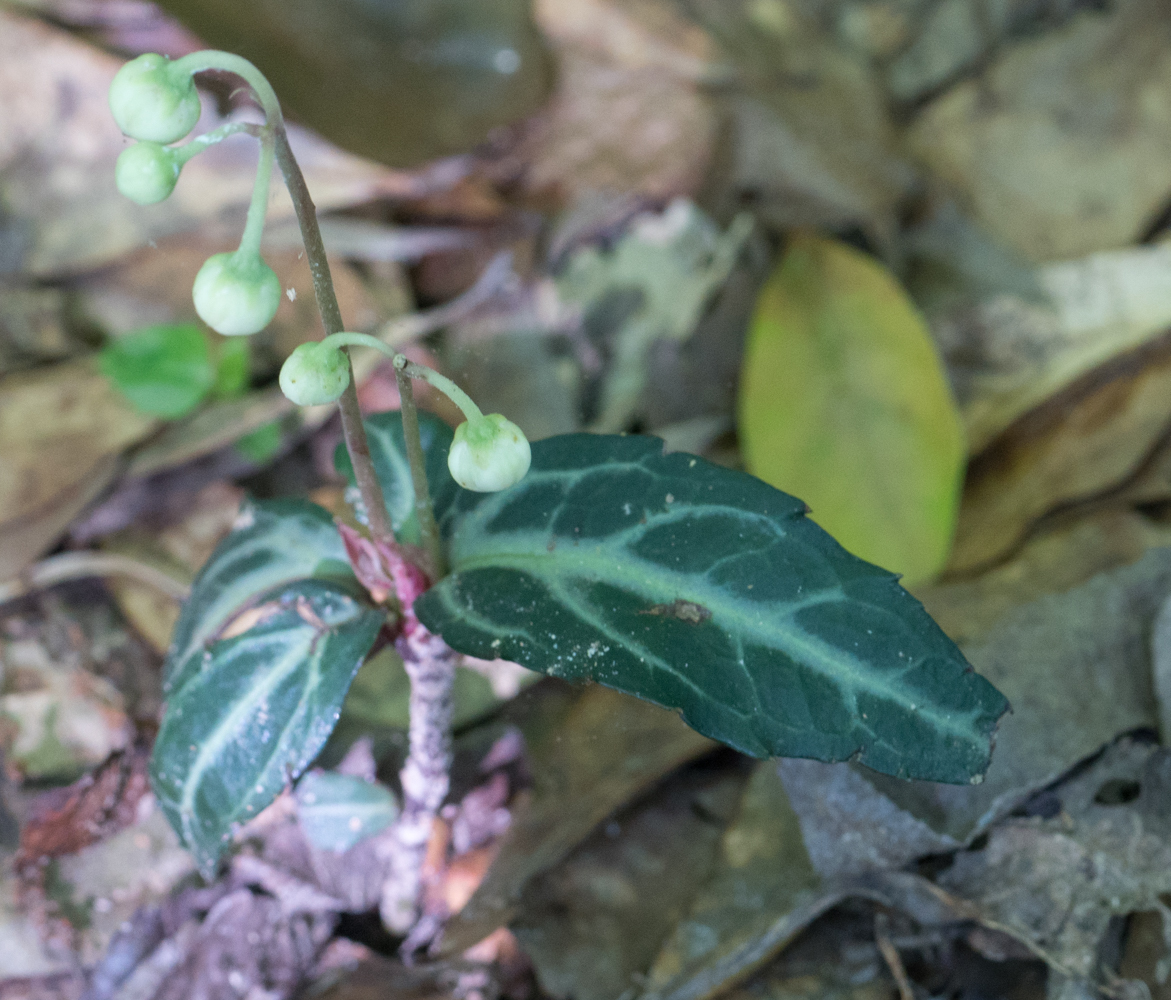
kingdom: Plantae
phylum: Tracheophyta
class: Magnoliopsida
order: Ericales
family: Ericaceae
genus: Chimaphila
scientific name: Chimaphila maculata
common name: Spotted pipsissewa
